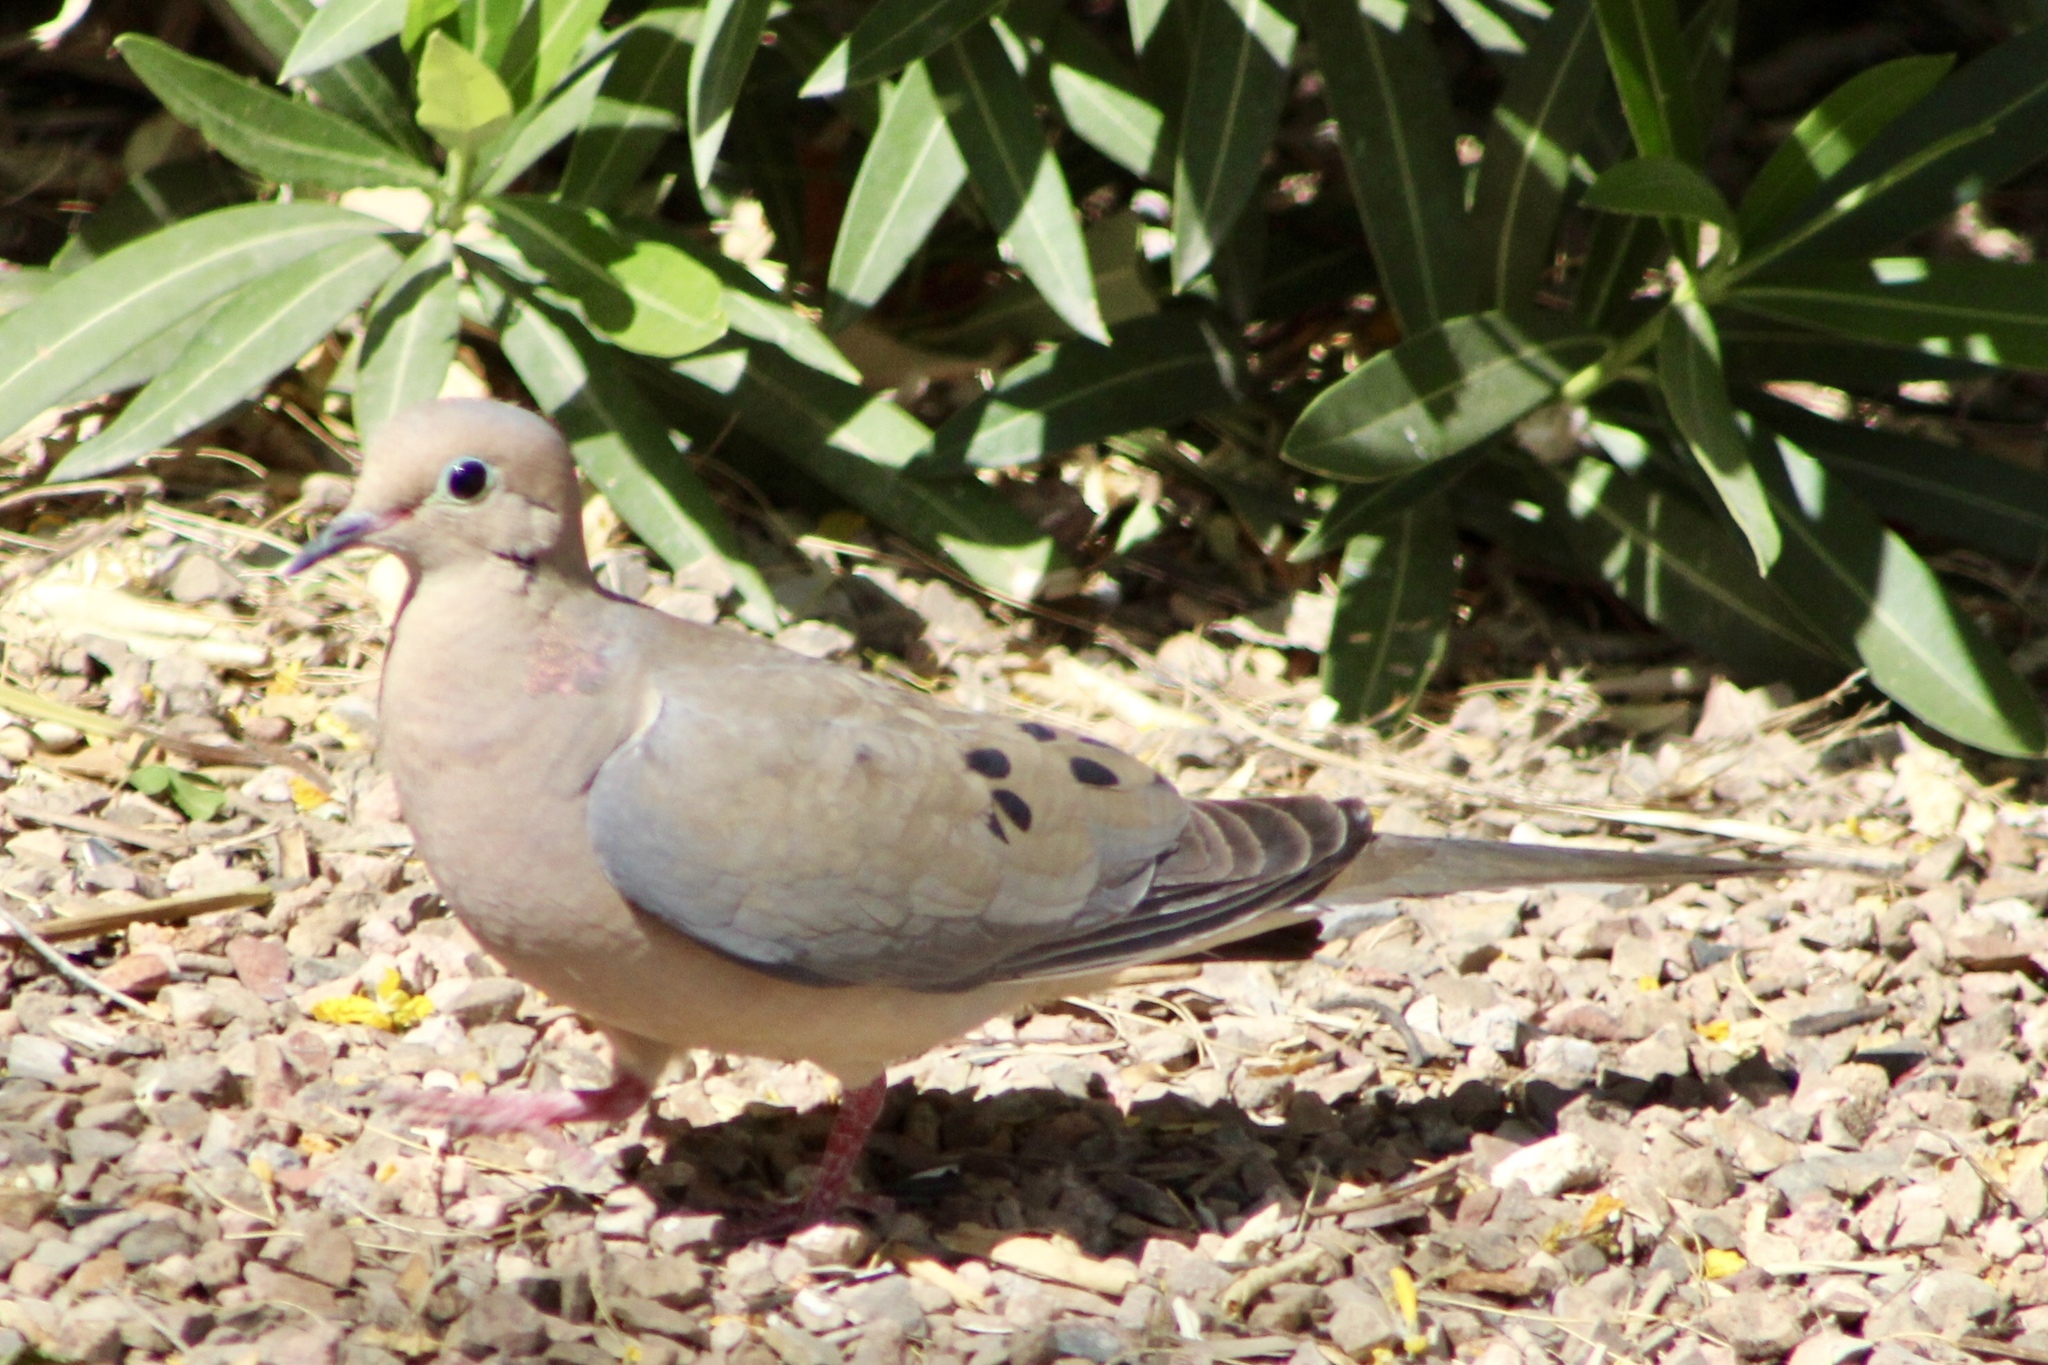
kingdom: Animalia
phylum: Chordata
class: Aves
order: Columbiformes
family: Columbidae
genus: Zenaida
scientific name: Zenaida macroura
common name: Mourning dove
